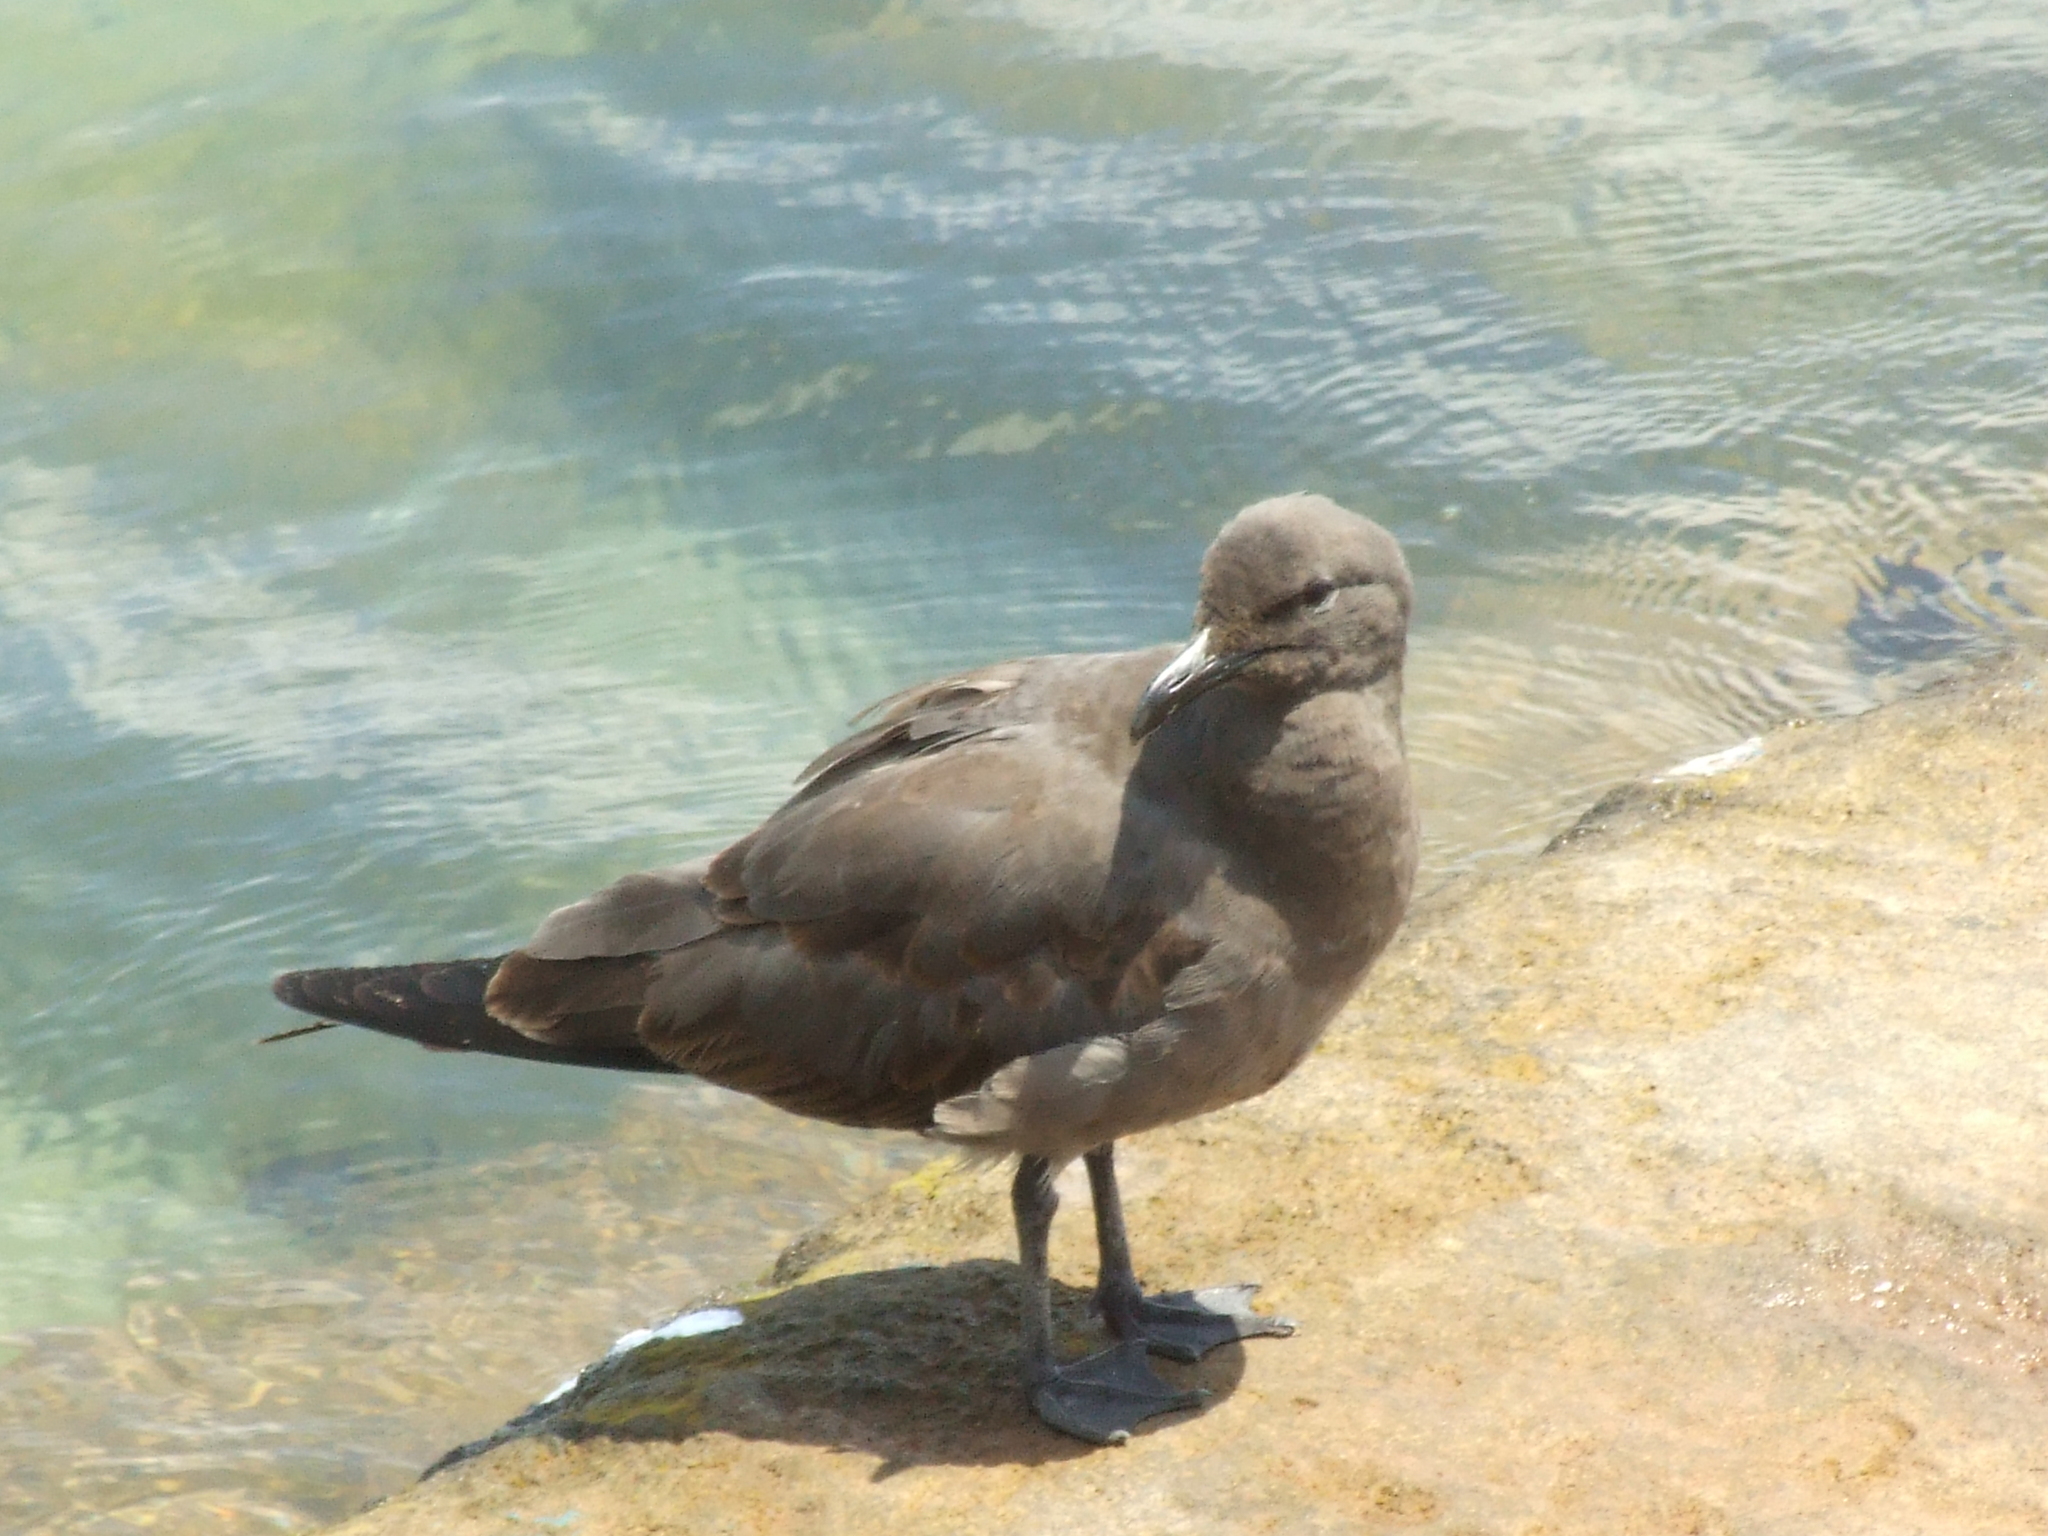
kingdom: Animalia
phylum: Chordata
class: Aves
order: Charadriiformes
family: Laridae
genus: Leucophaeus
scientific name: Leucophaeus fuliginosus
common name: Lava gull
